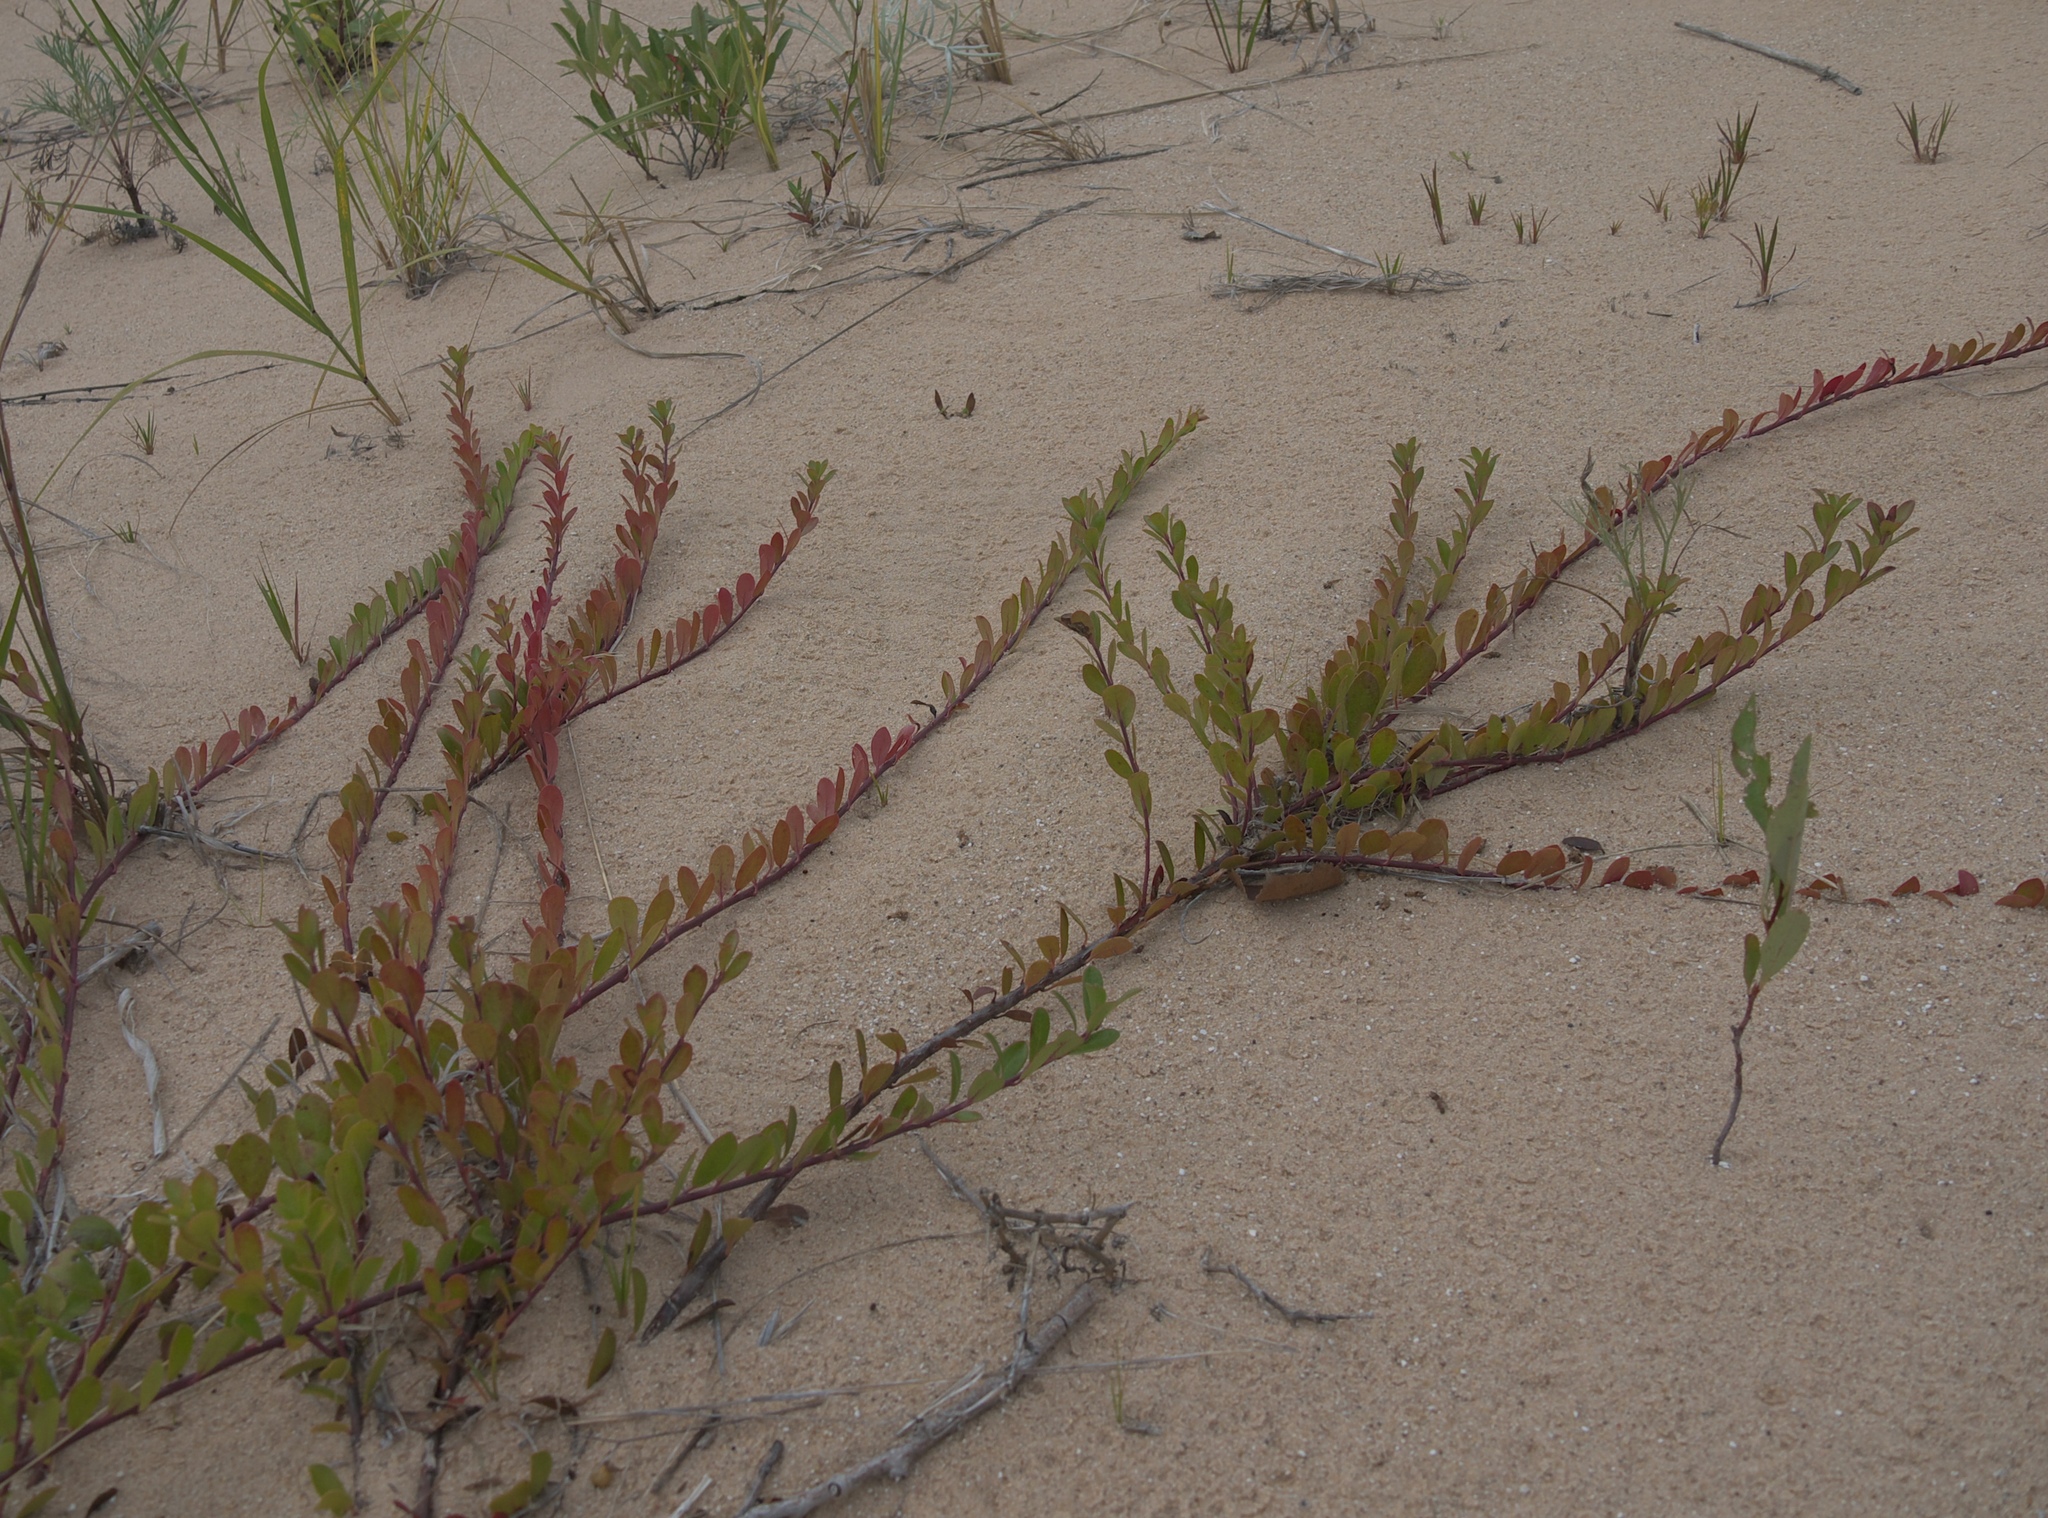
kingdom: Plantae
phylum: Tracheophyta
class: Magnoliopsida
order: Ericales
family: Ericaceae
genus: Arctostaphylos
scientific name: Arctostaphylos uva-ursi
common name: Bearberry
